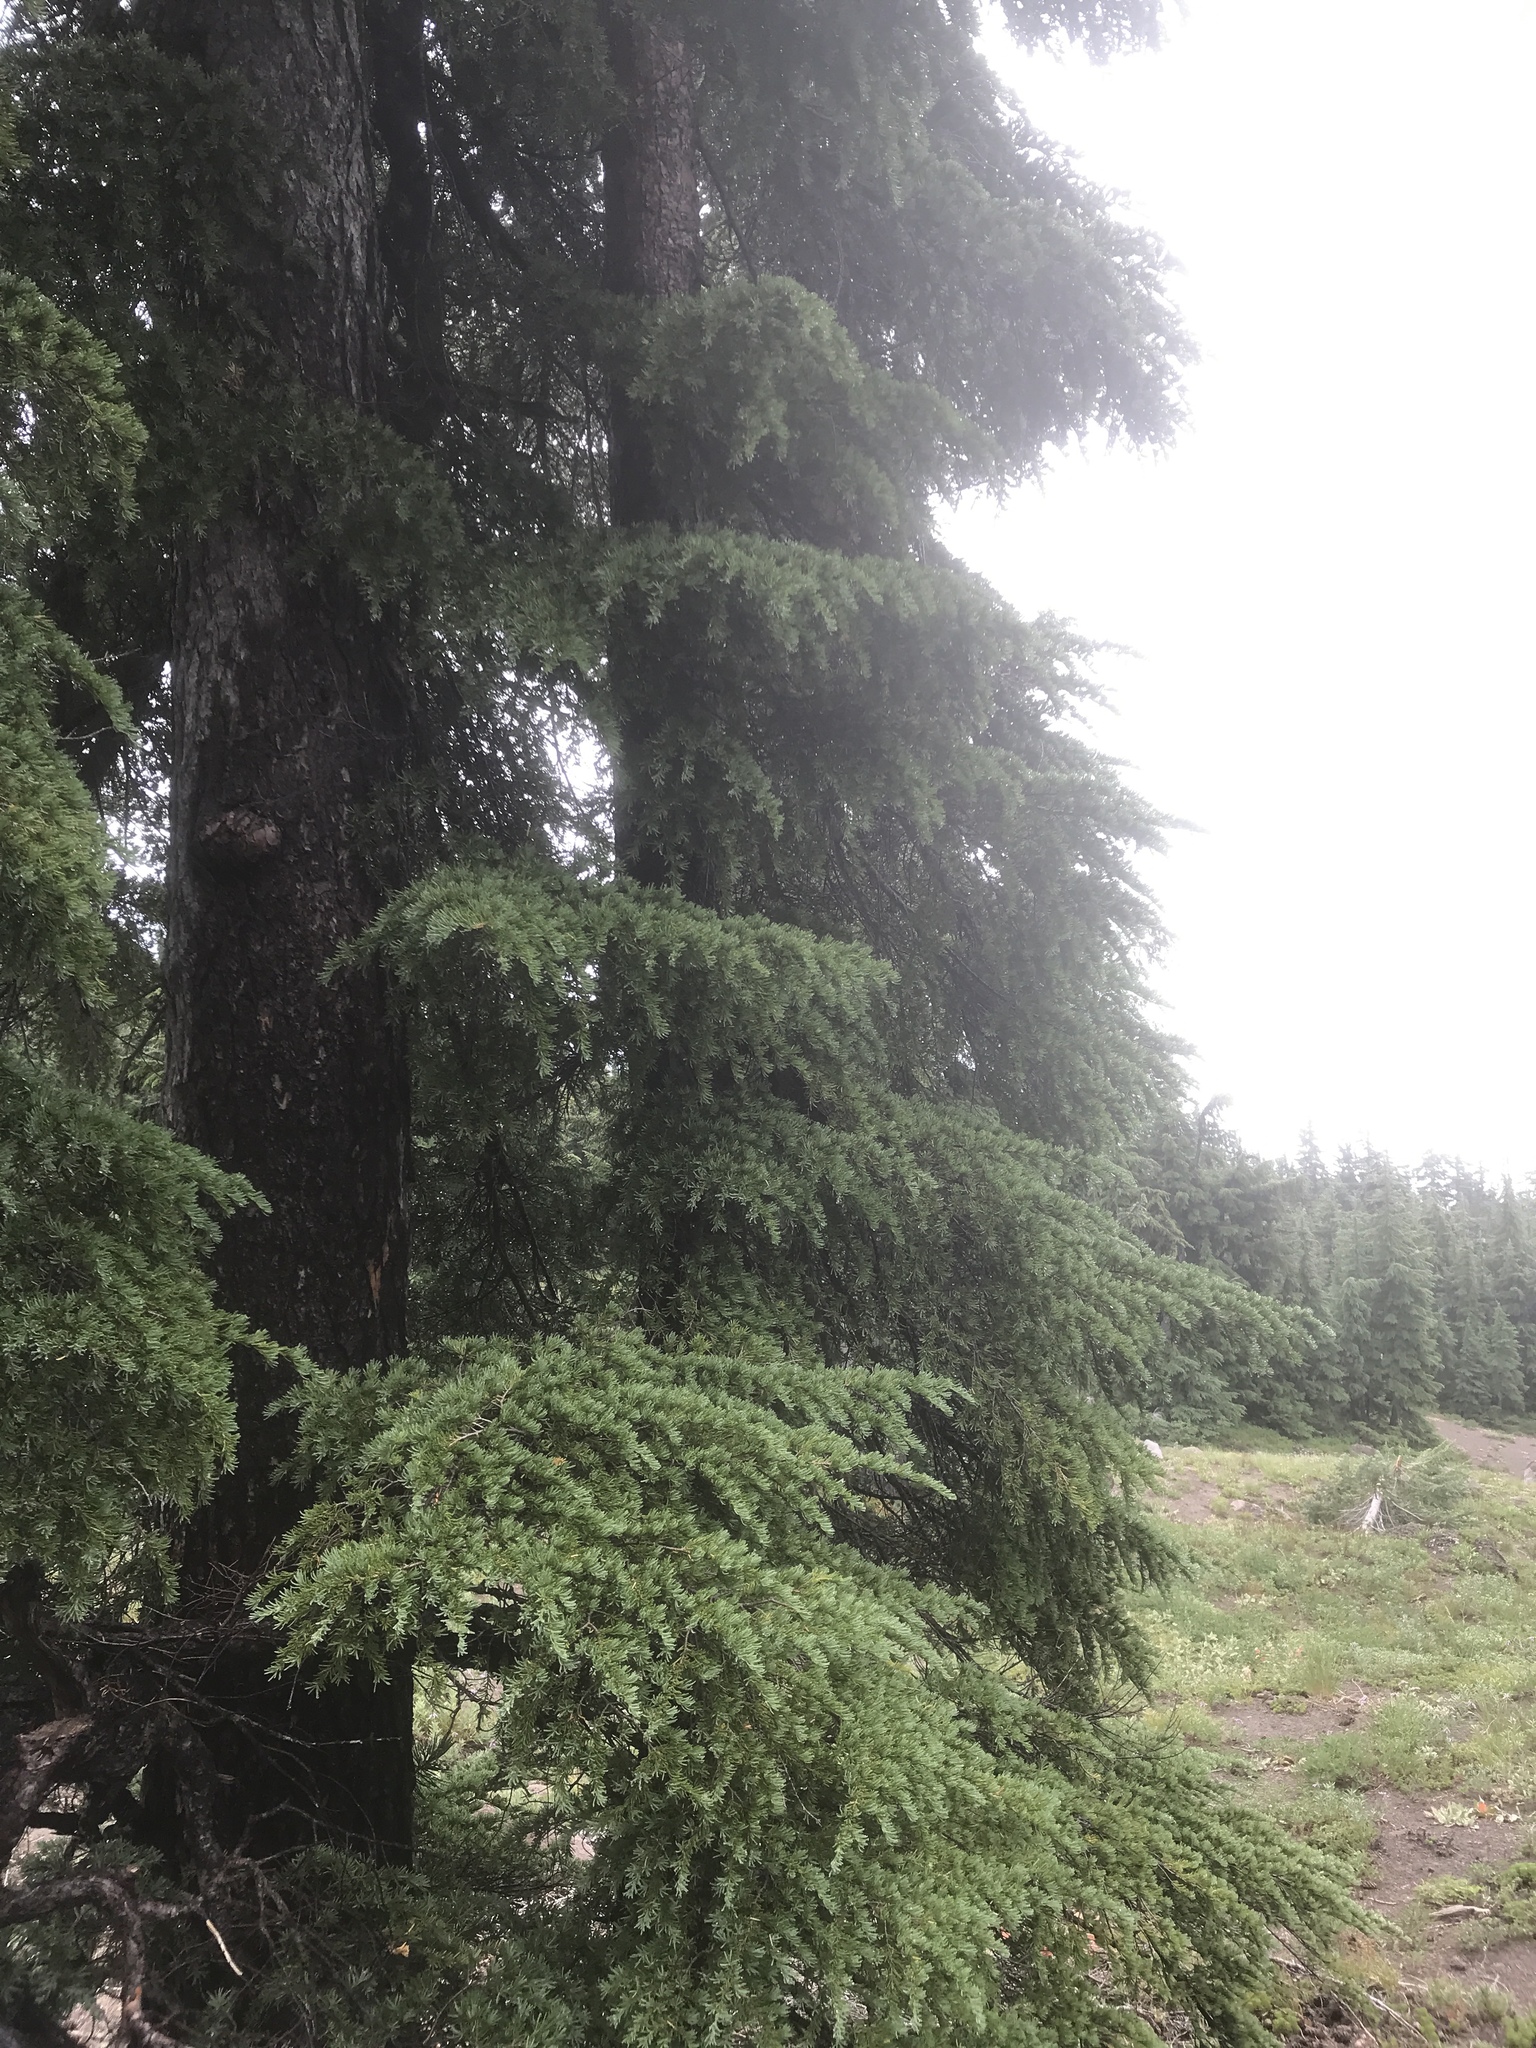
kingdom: Plantae
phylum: Tracheophyta
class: Pinopsida
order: Pinales
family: Pinaceae
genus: Tsuga
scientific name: Tsuga mertensiana
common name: Mountain hemlock
